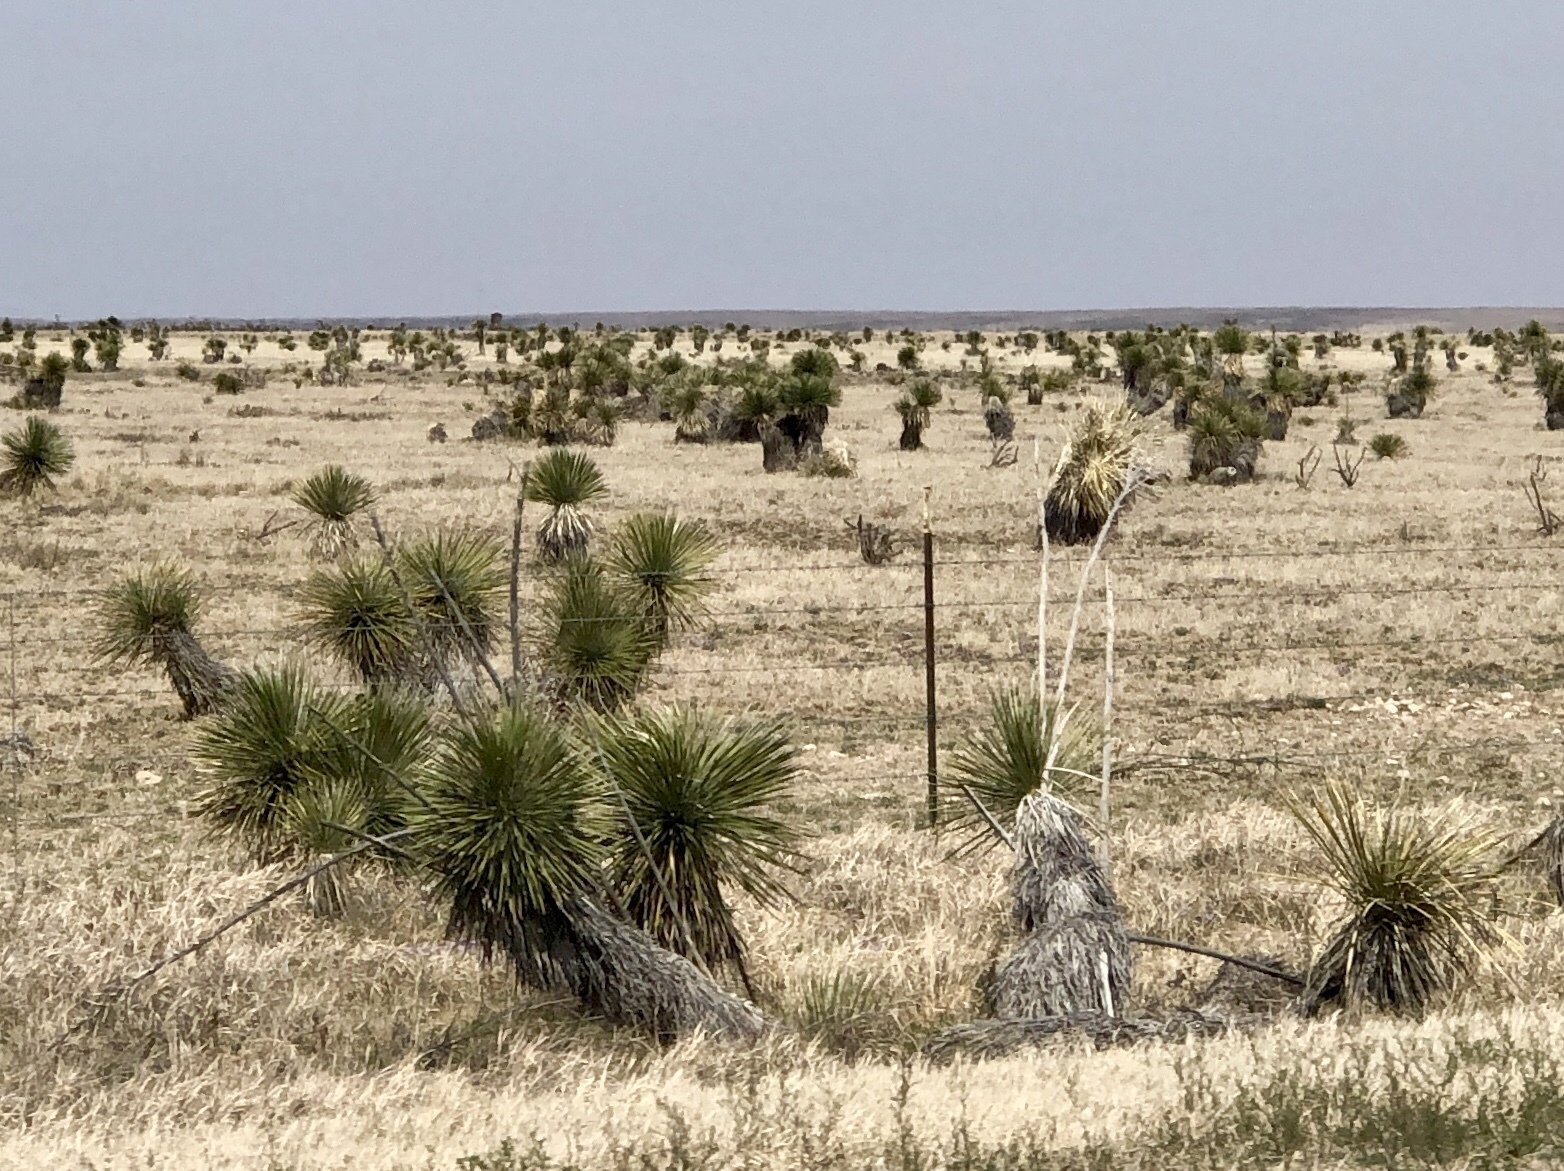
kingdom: Plantae
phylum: Tracheophyta
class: Liliopsida
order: Asparagales
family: Asparagaceae
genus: Yucca
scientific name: Yucca elata
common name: Palmella
